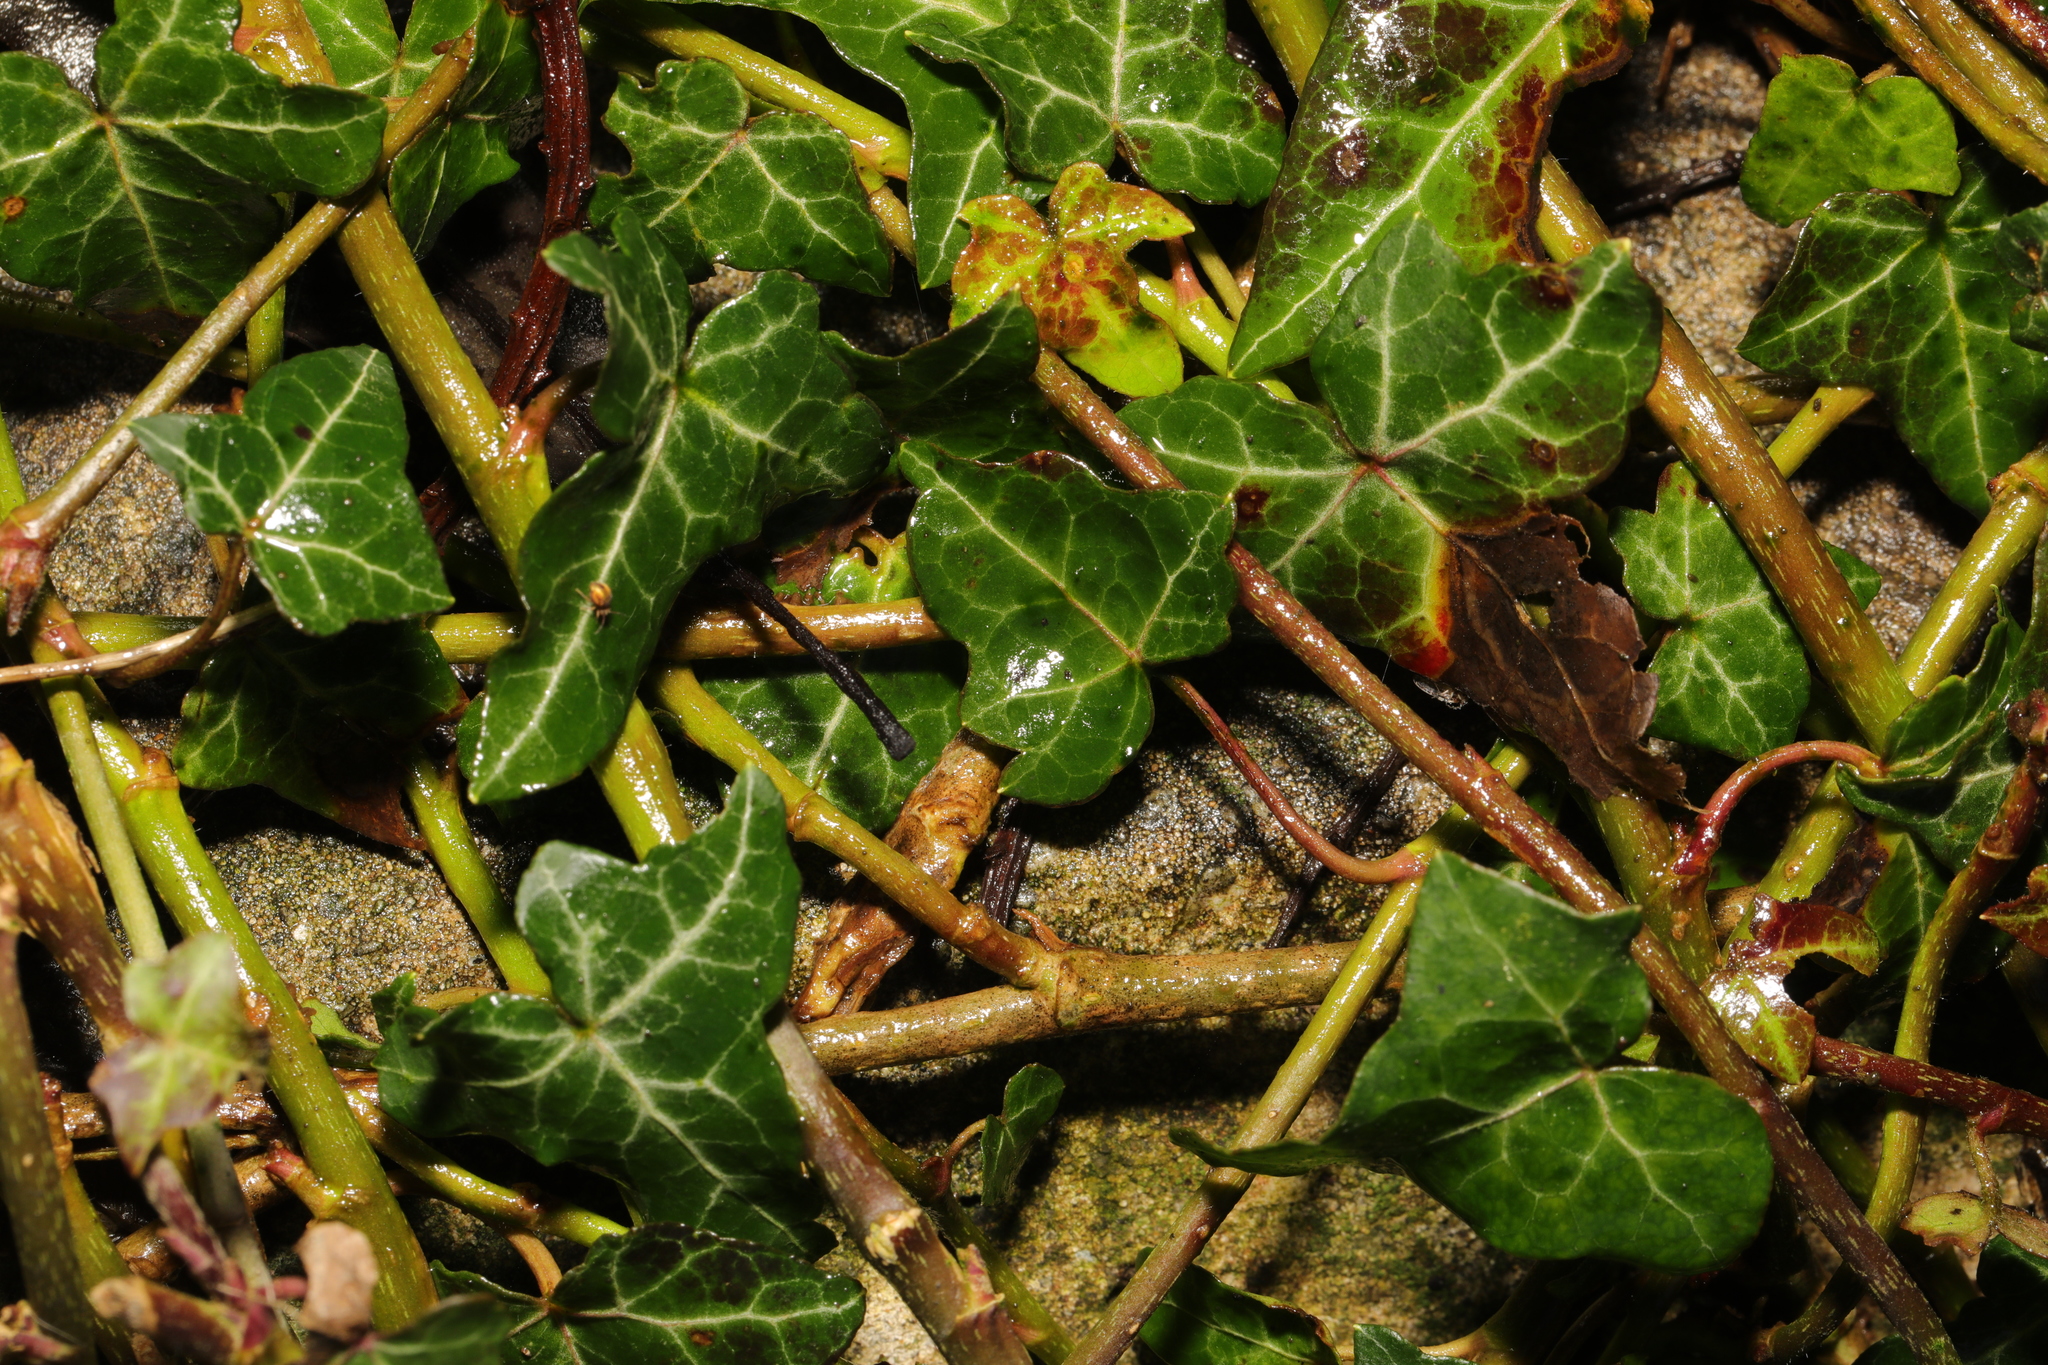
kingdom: Plantae
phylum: Tracheophyta
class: Magnoliopsida
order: Apiales
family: Araliaceae
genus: Hedera
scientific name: Hedera helix
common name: Ivy
